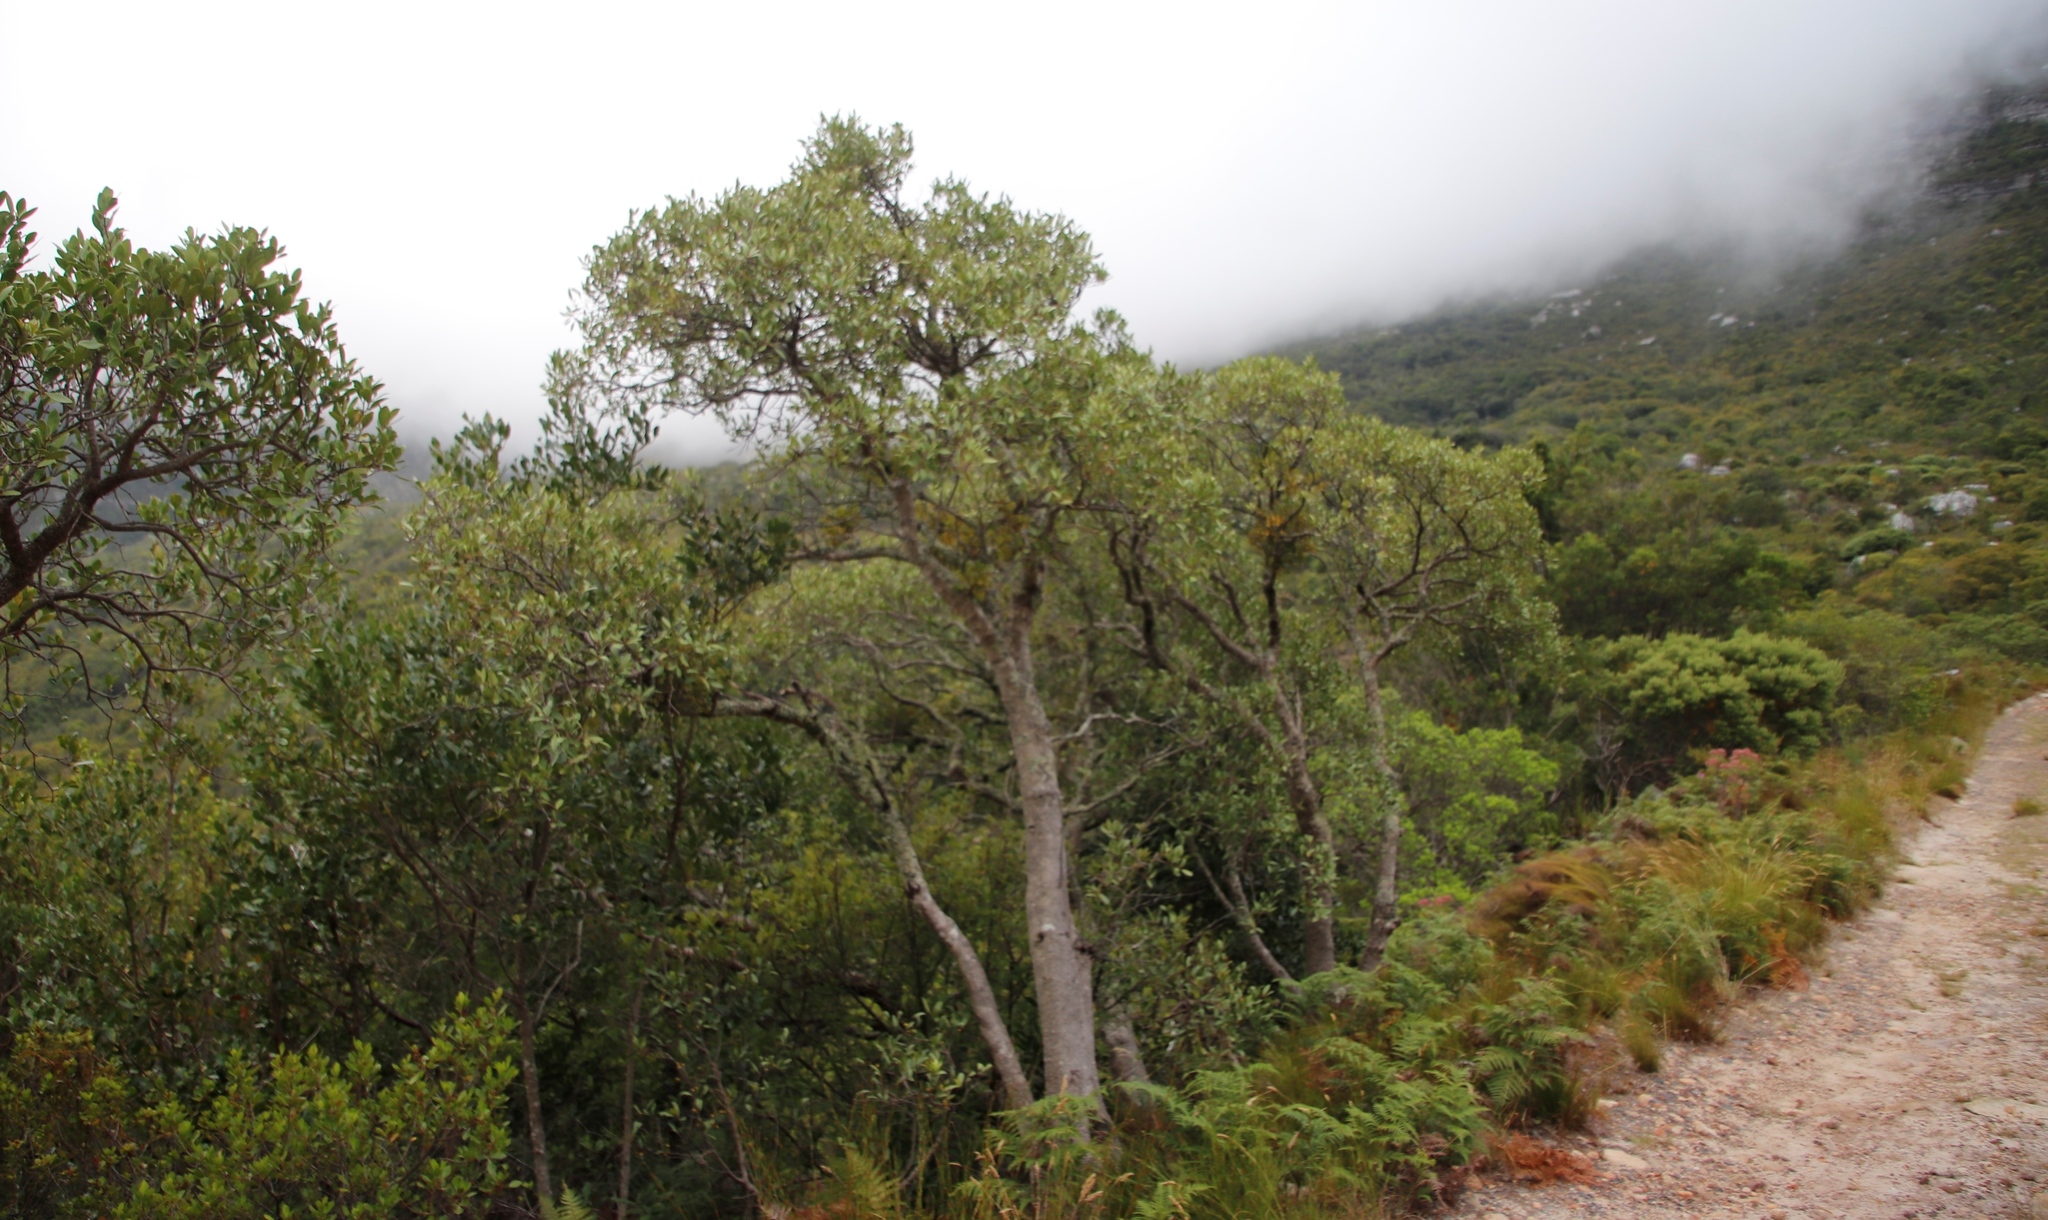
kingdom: Plantae
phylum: Tracheophyta
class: Magnoliopsida
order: Celastrales
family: Celastraceae
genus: Gymnosporia
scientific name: Gymnosporia laurina
